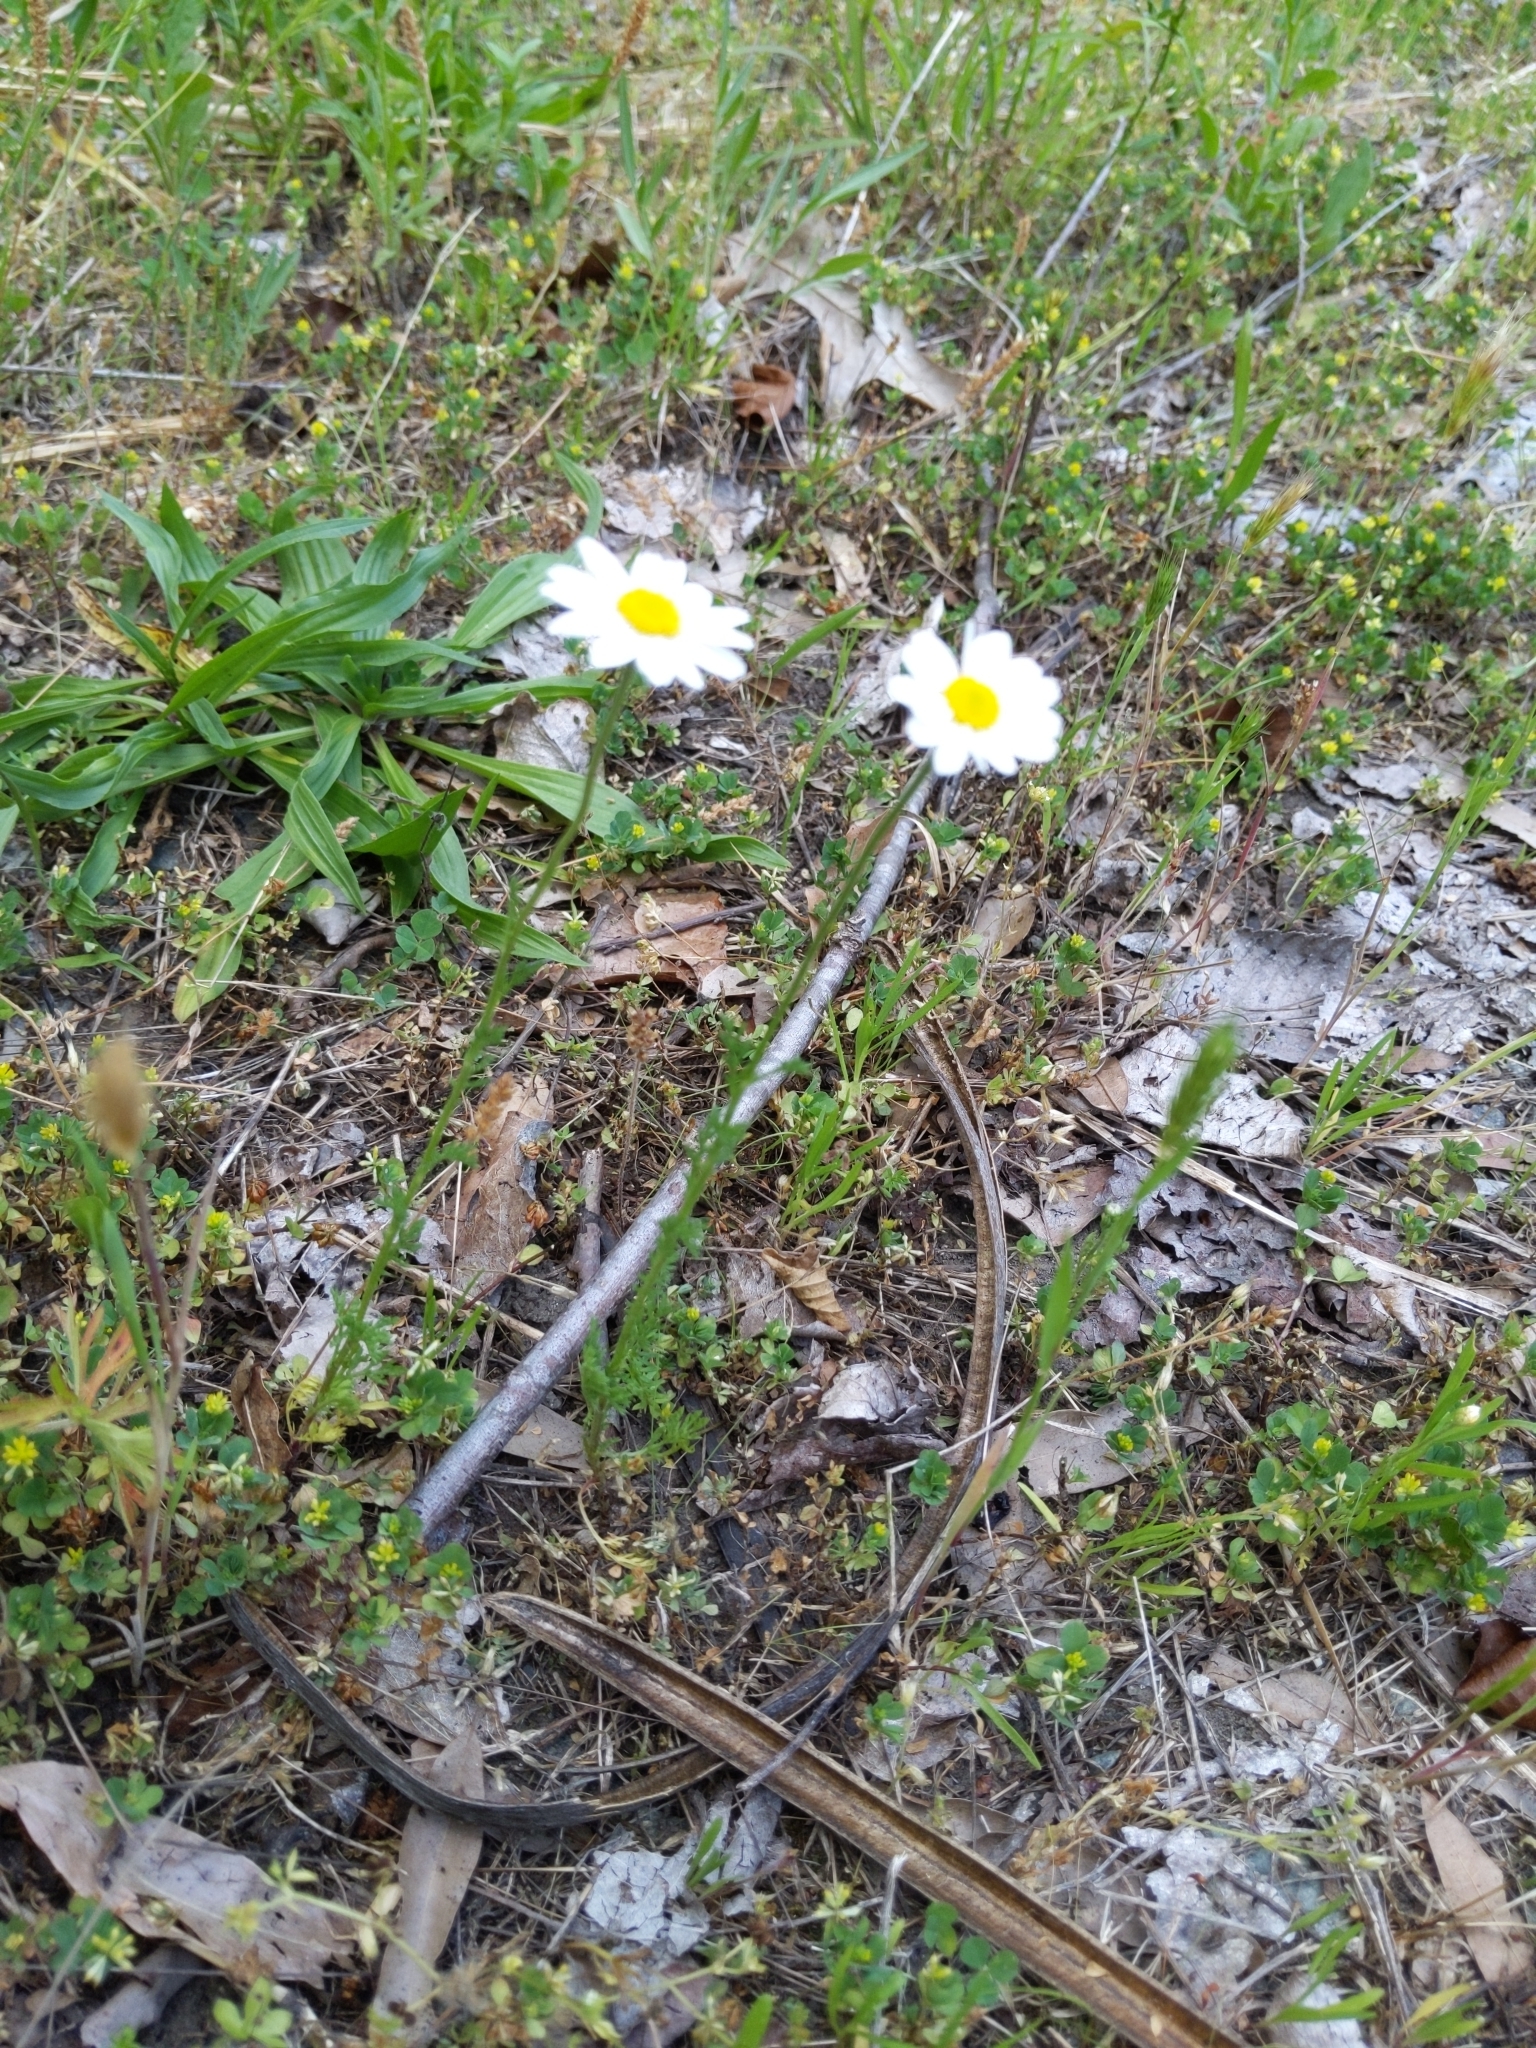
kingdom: Plantae
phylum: Tracheophyta
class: Magnoliopsida
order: Asterales
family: Asteraceae
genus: Leucanthemum
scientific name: Leucanthemum vulgare
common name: Oxeye daisy
